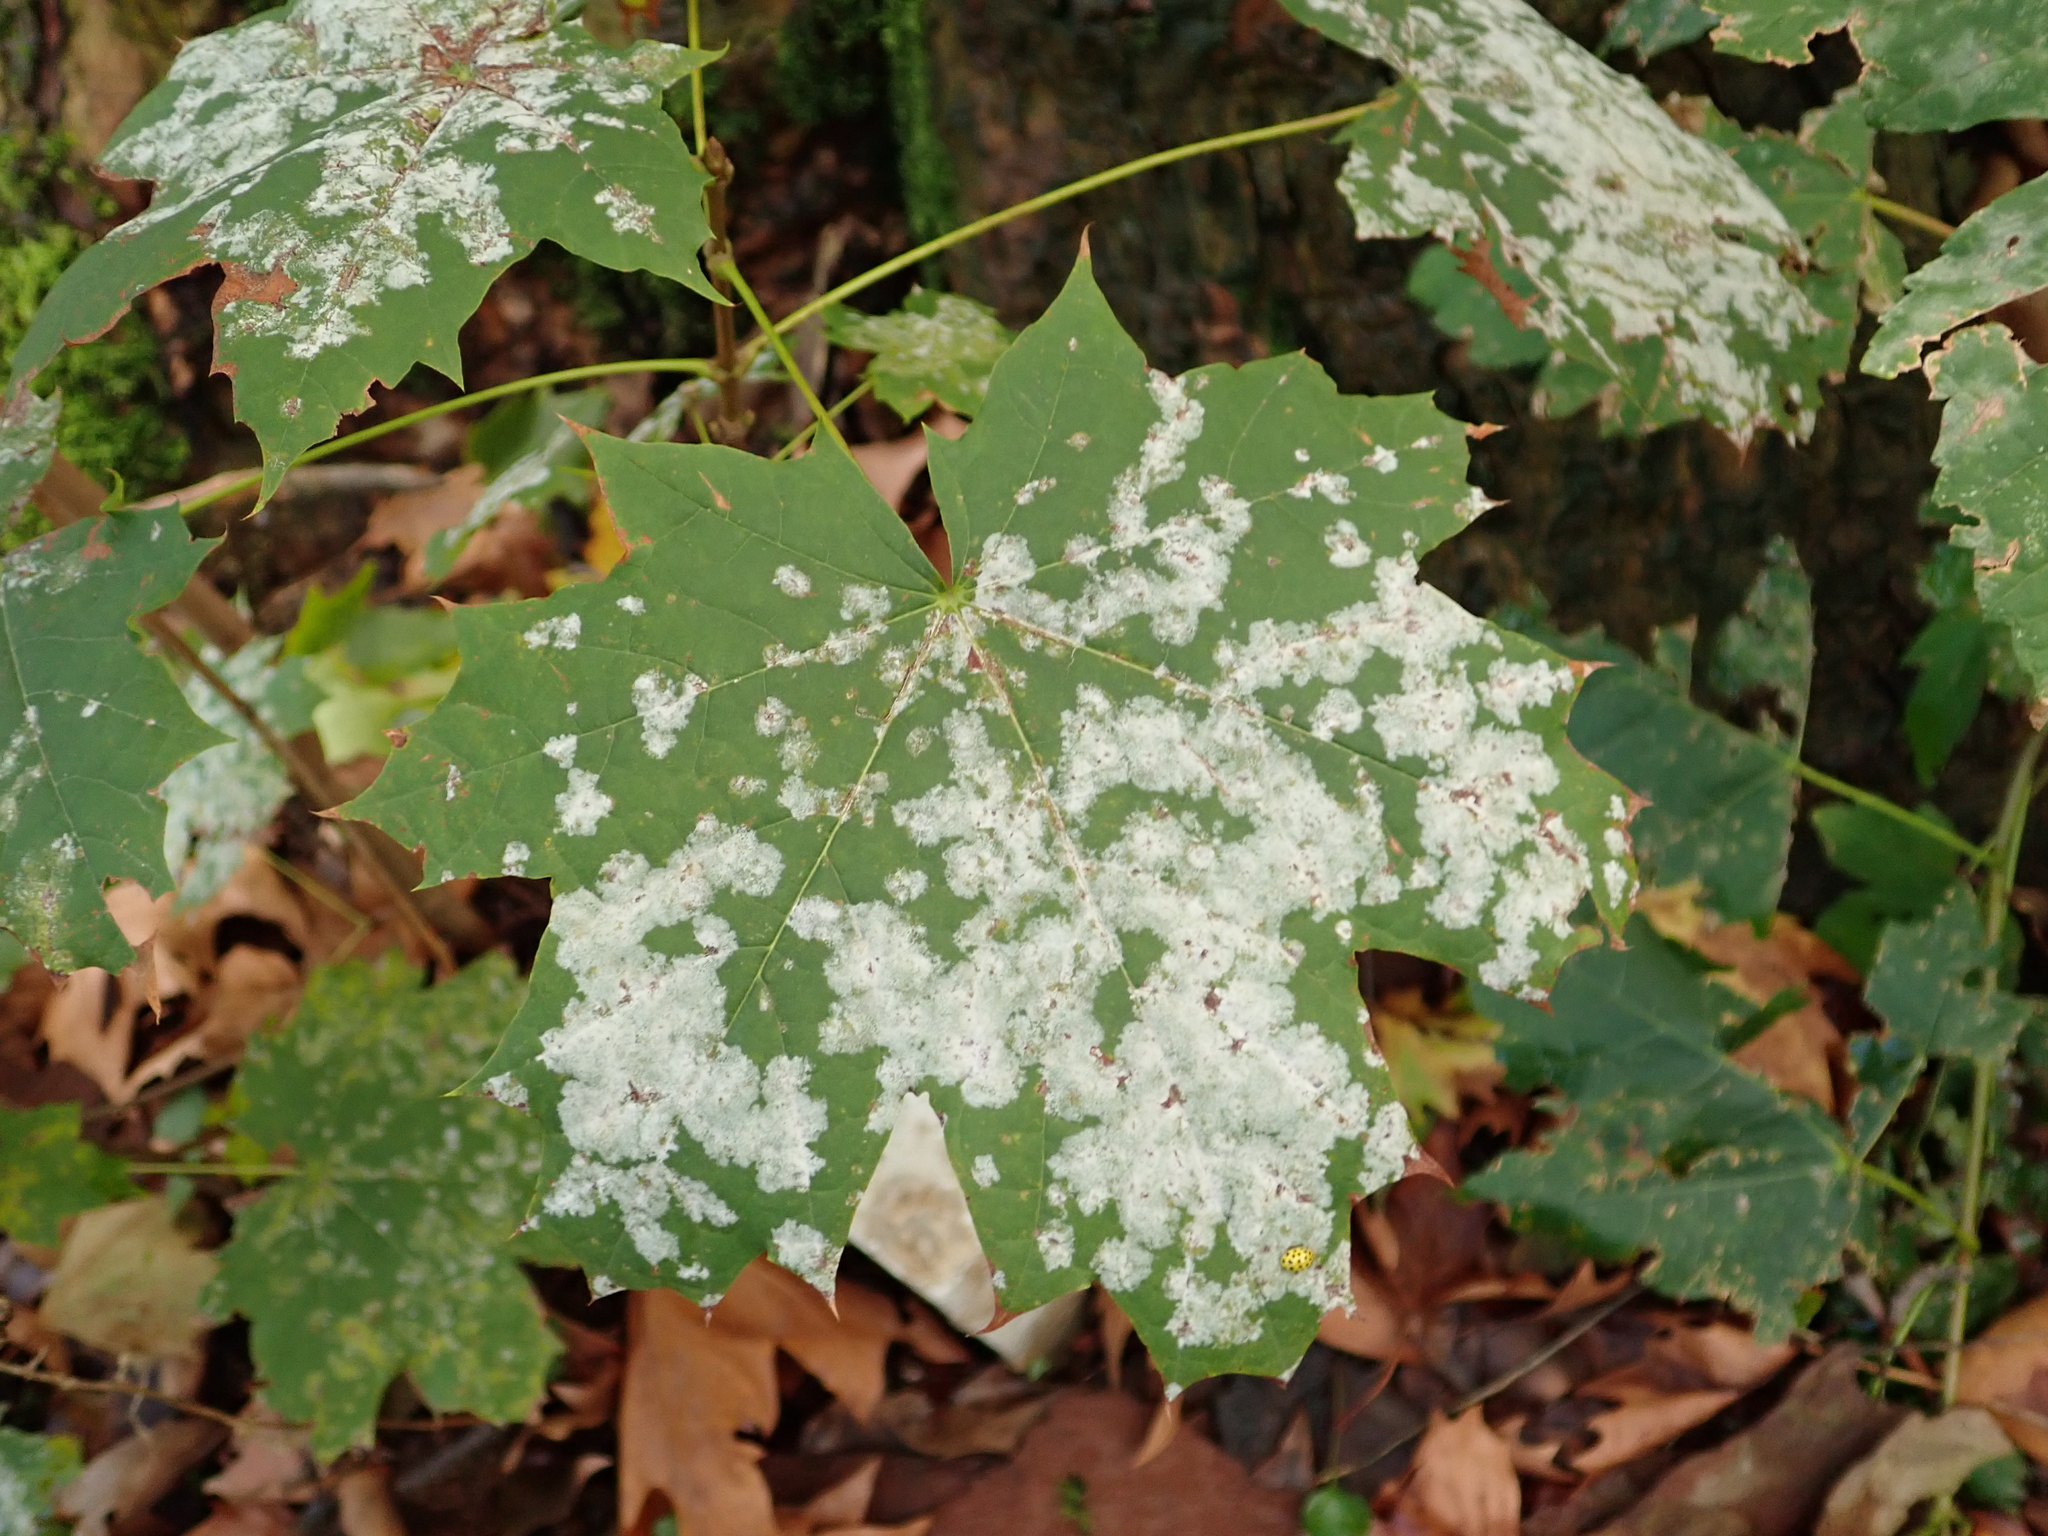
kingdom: Plantae
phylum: Tracheophyta
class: Magnoliopsida
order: Sapindales
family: Sapindaceae
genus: Acer
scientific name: Acer platanoides
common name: Norway maple
